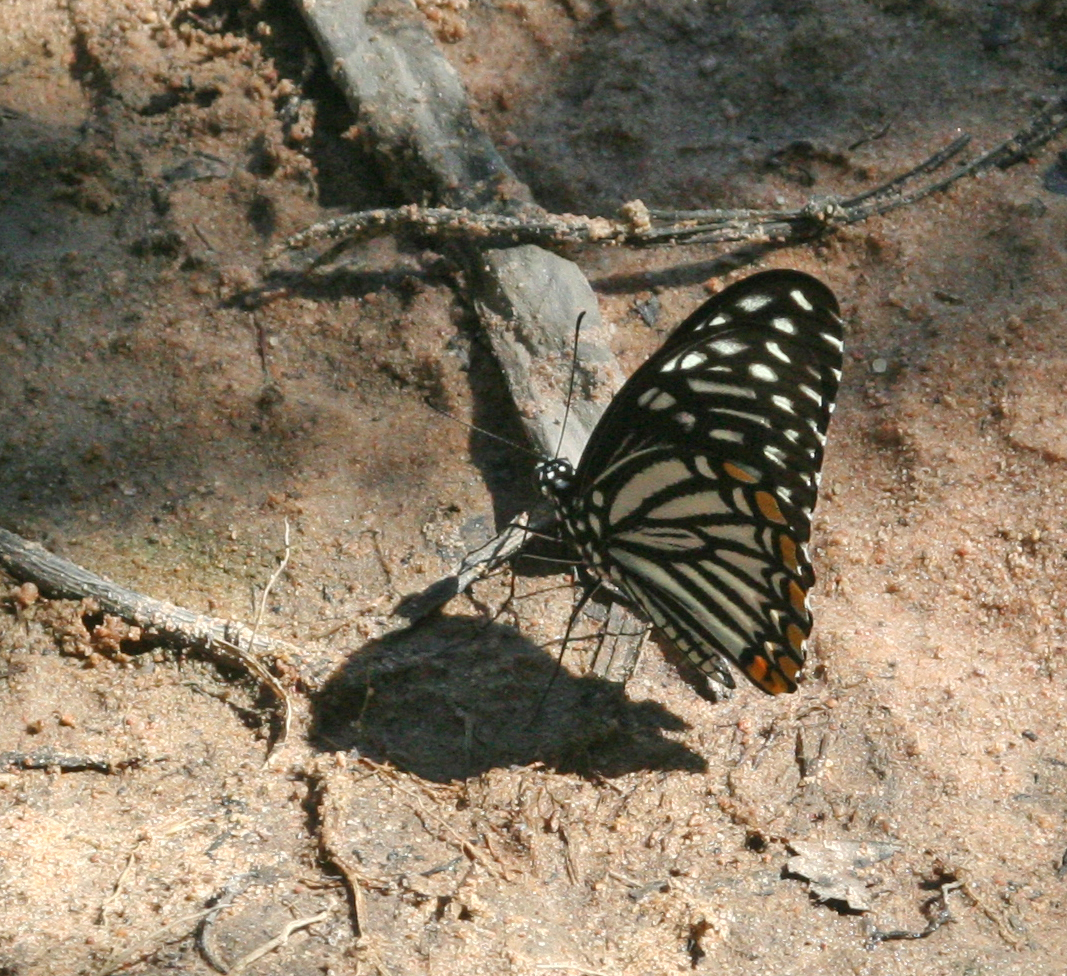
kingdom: Animalia
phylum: Arthropoda
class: Insecta
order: Lepidoptera
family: Papilionidae
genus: Chilasa
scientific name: Chilasa clytia
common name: Common mime
